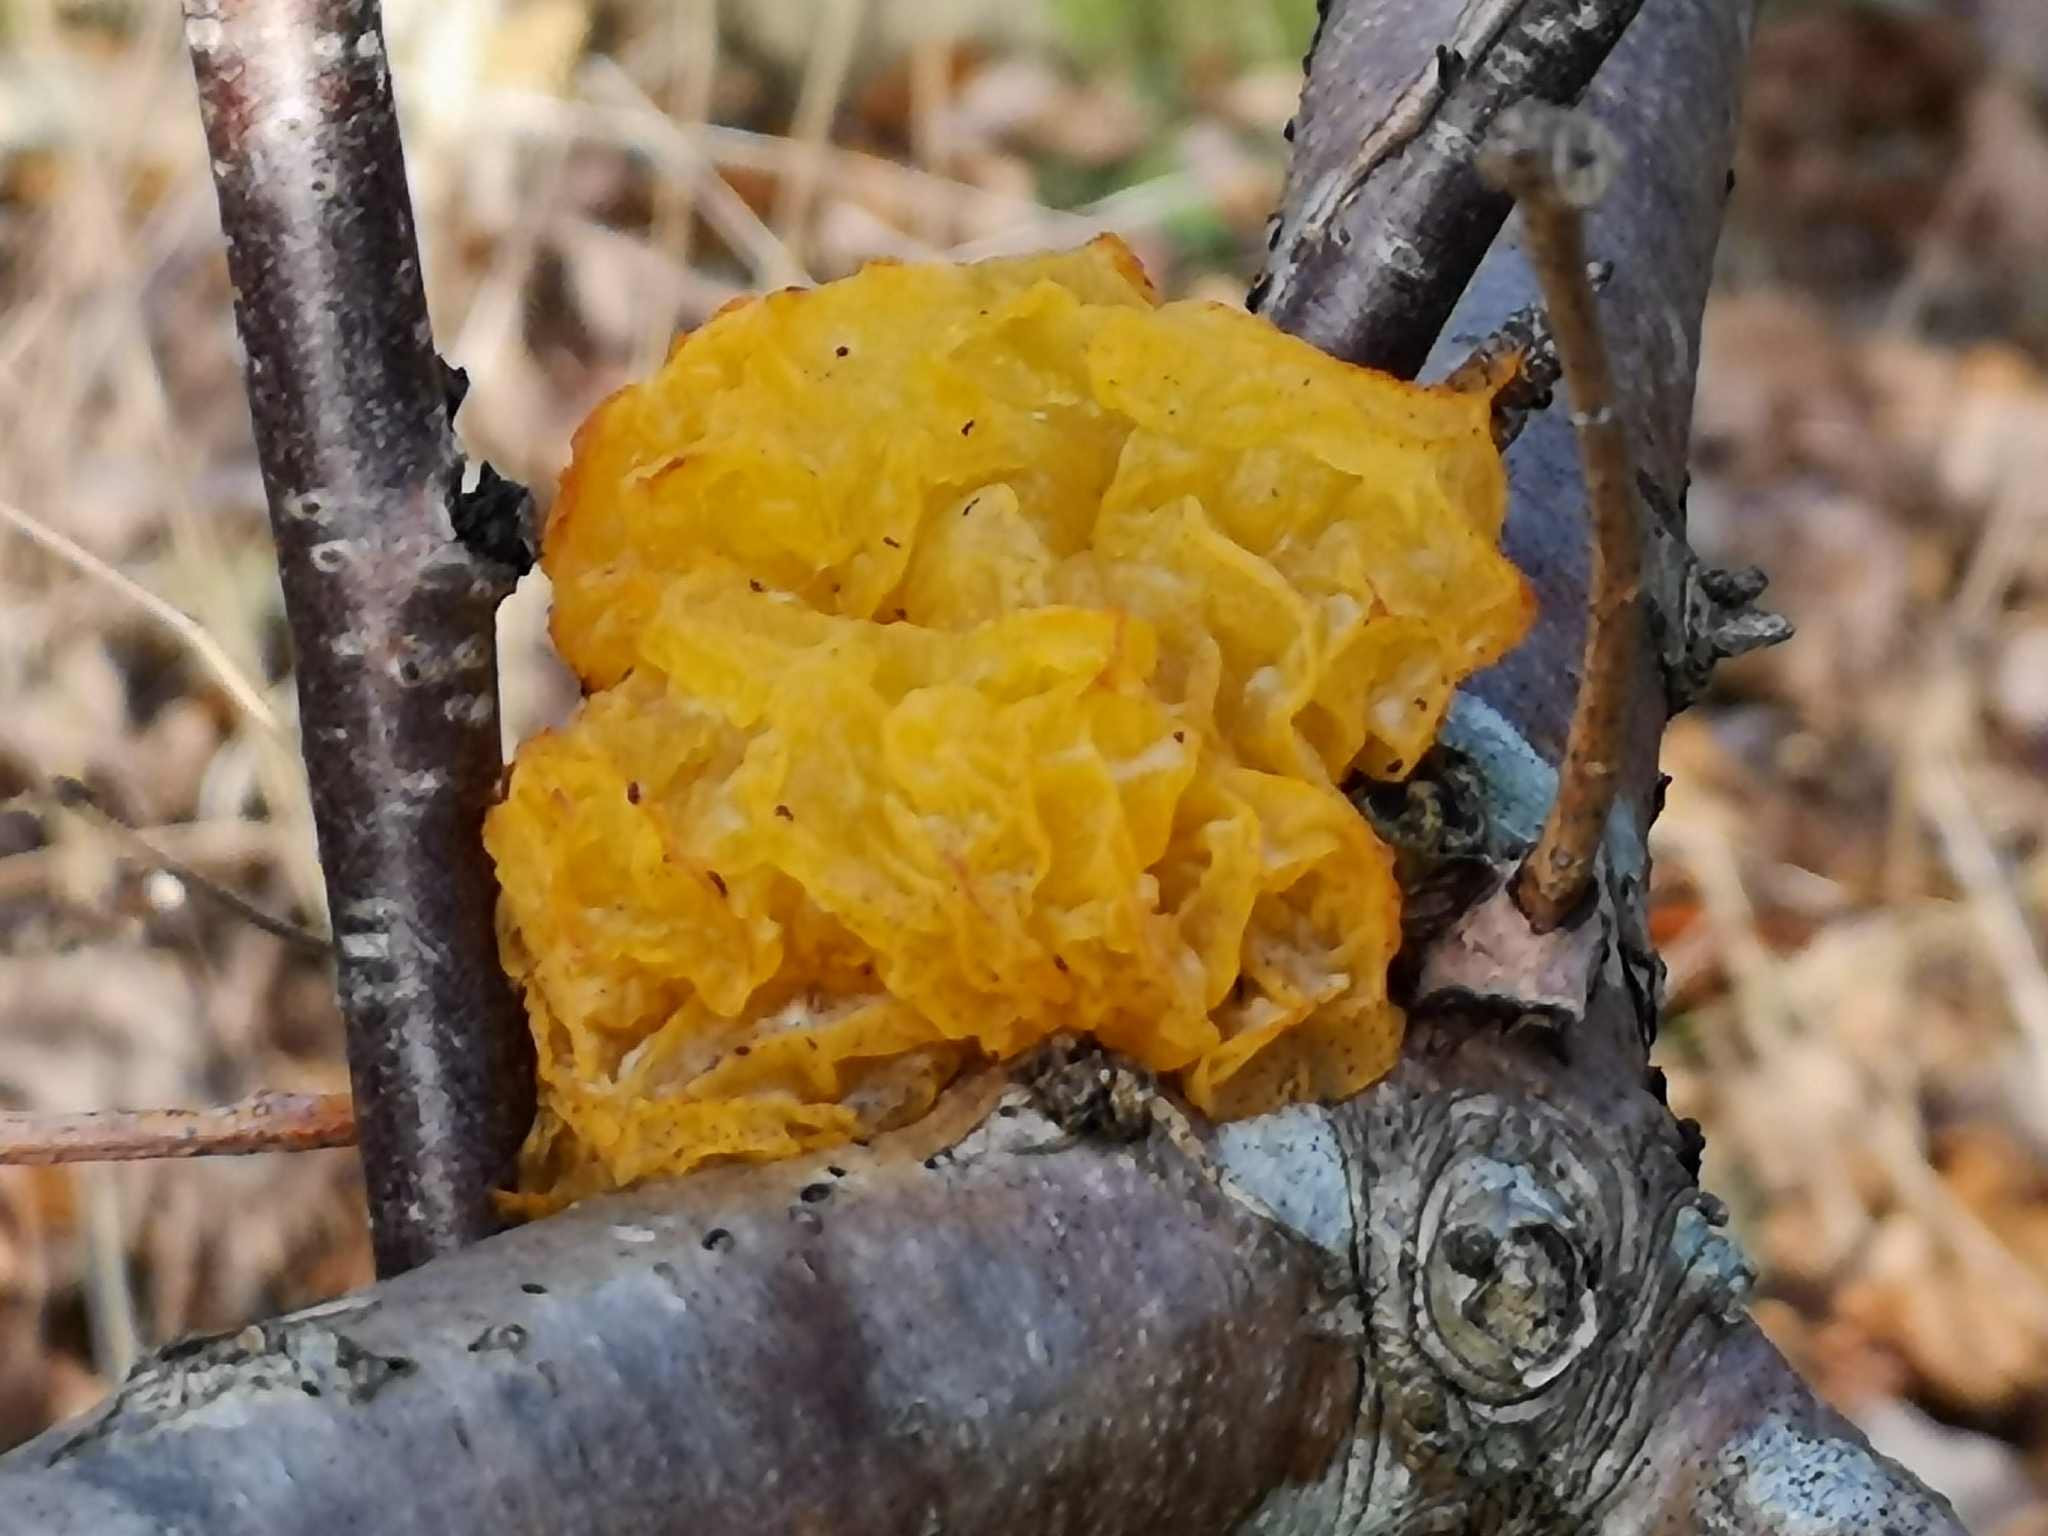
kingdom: Fungi
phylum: Basidiomycota
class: Tremellomycetes
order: Tremellales
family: Tremellaceae
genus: Tremella
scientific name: Tremella mesenterica
